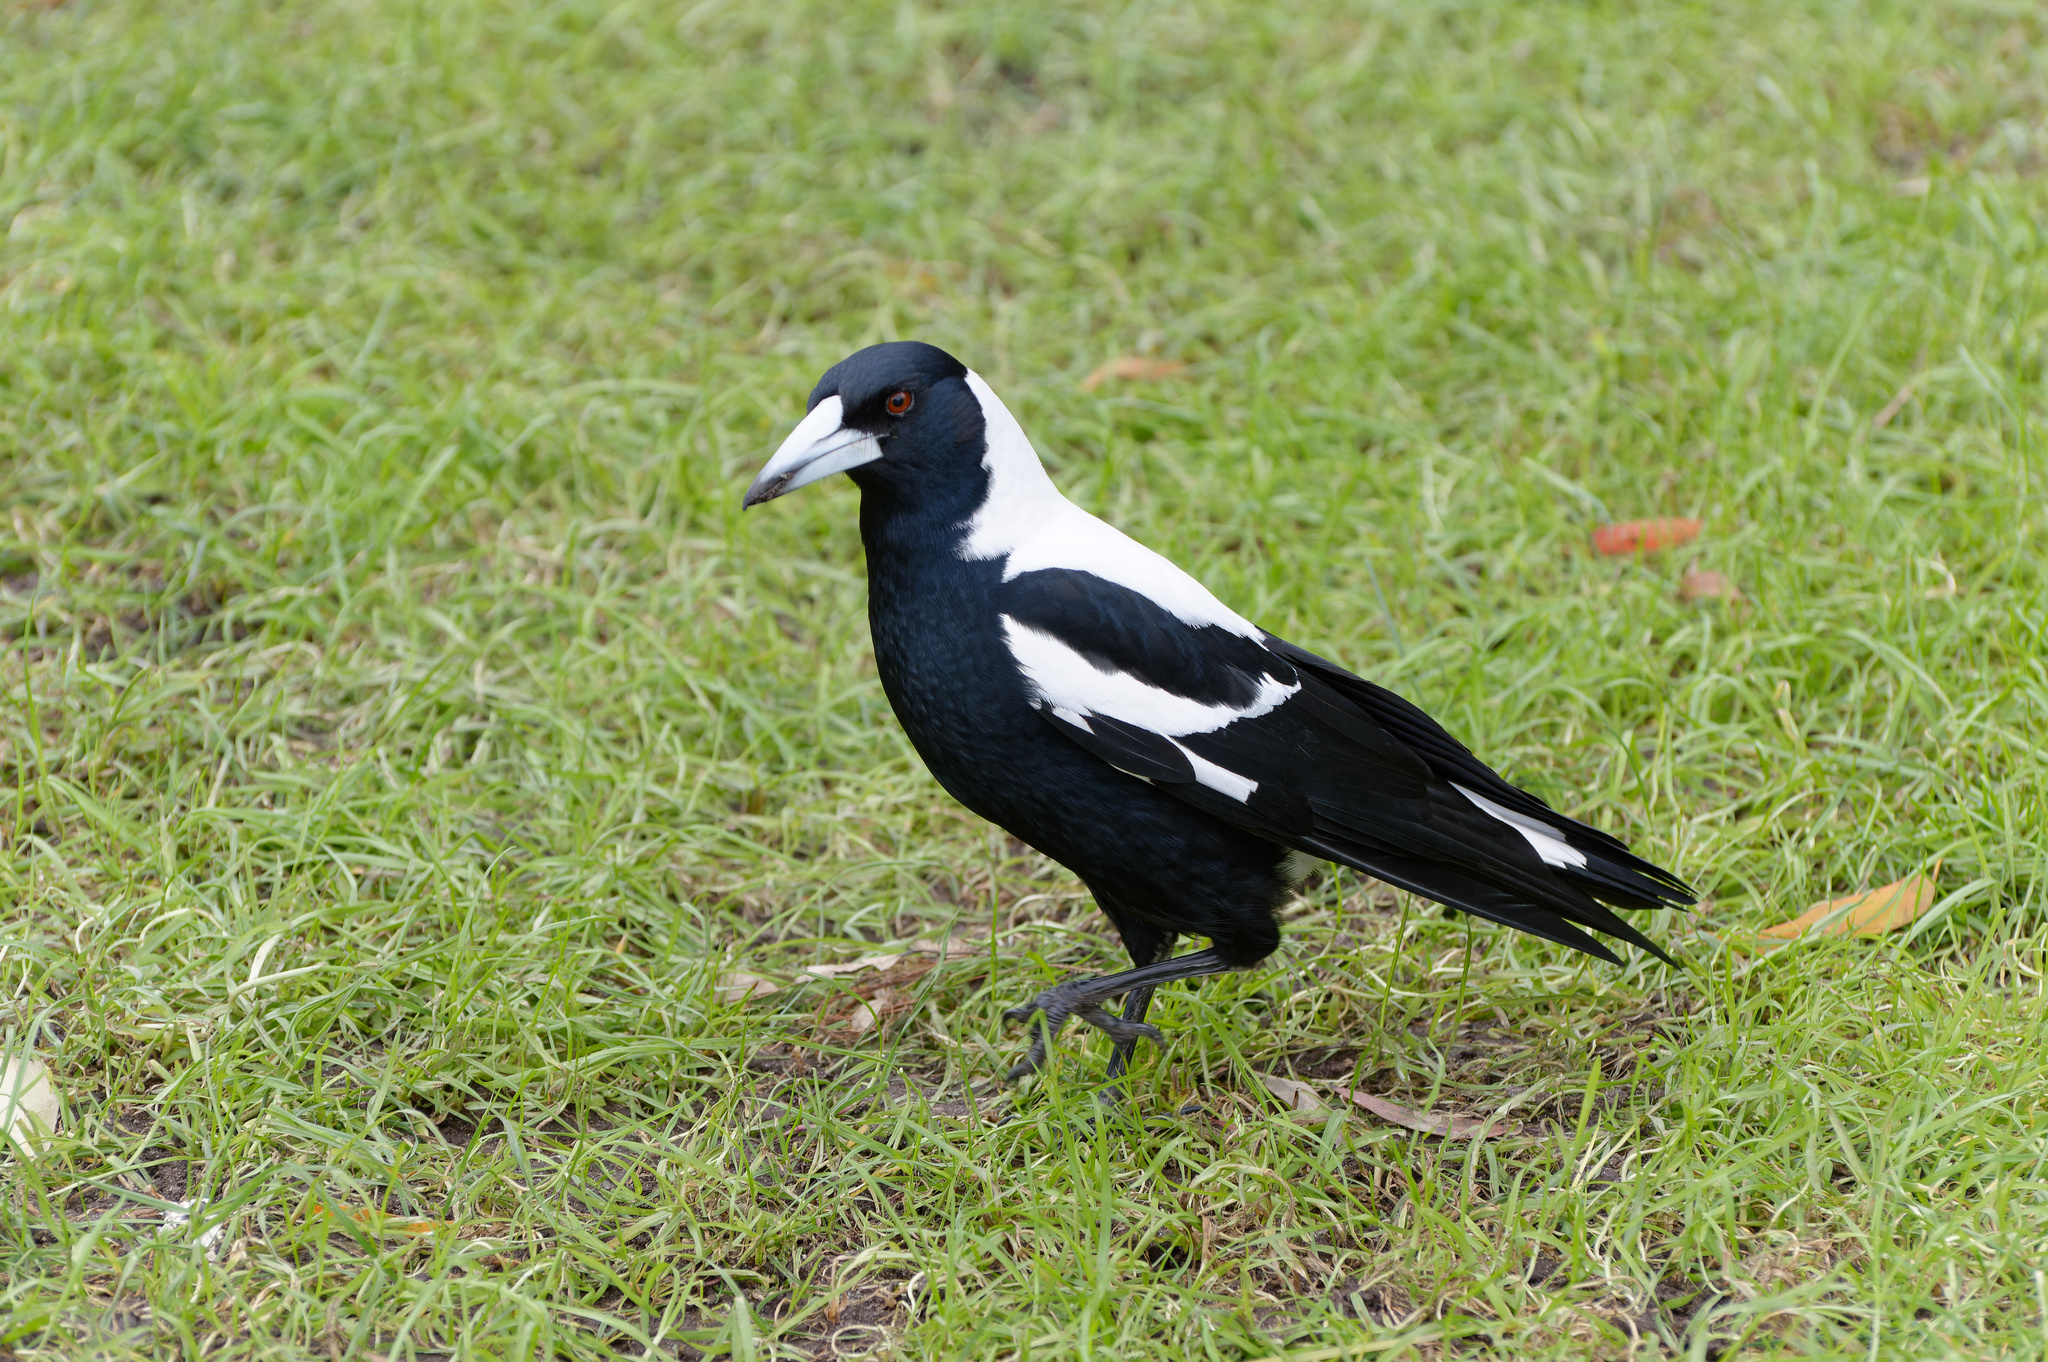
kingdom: Animalia
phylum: Chordata
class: Aves
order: Passeriformes
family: Cracticidae
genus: Gymnorhina
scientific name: Gymnorhina tibicen
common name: Australian magpie
